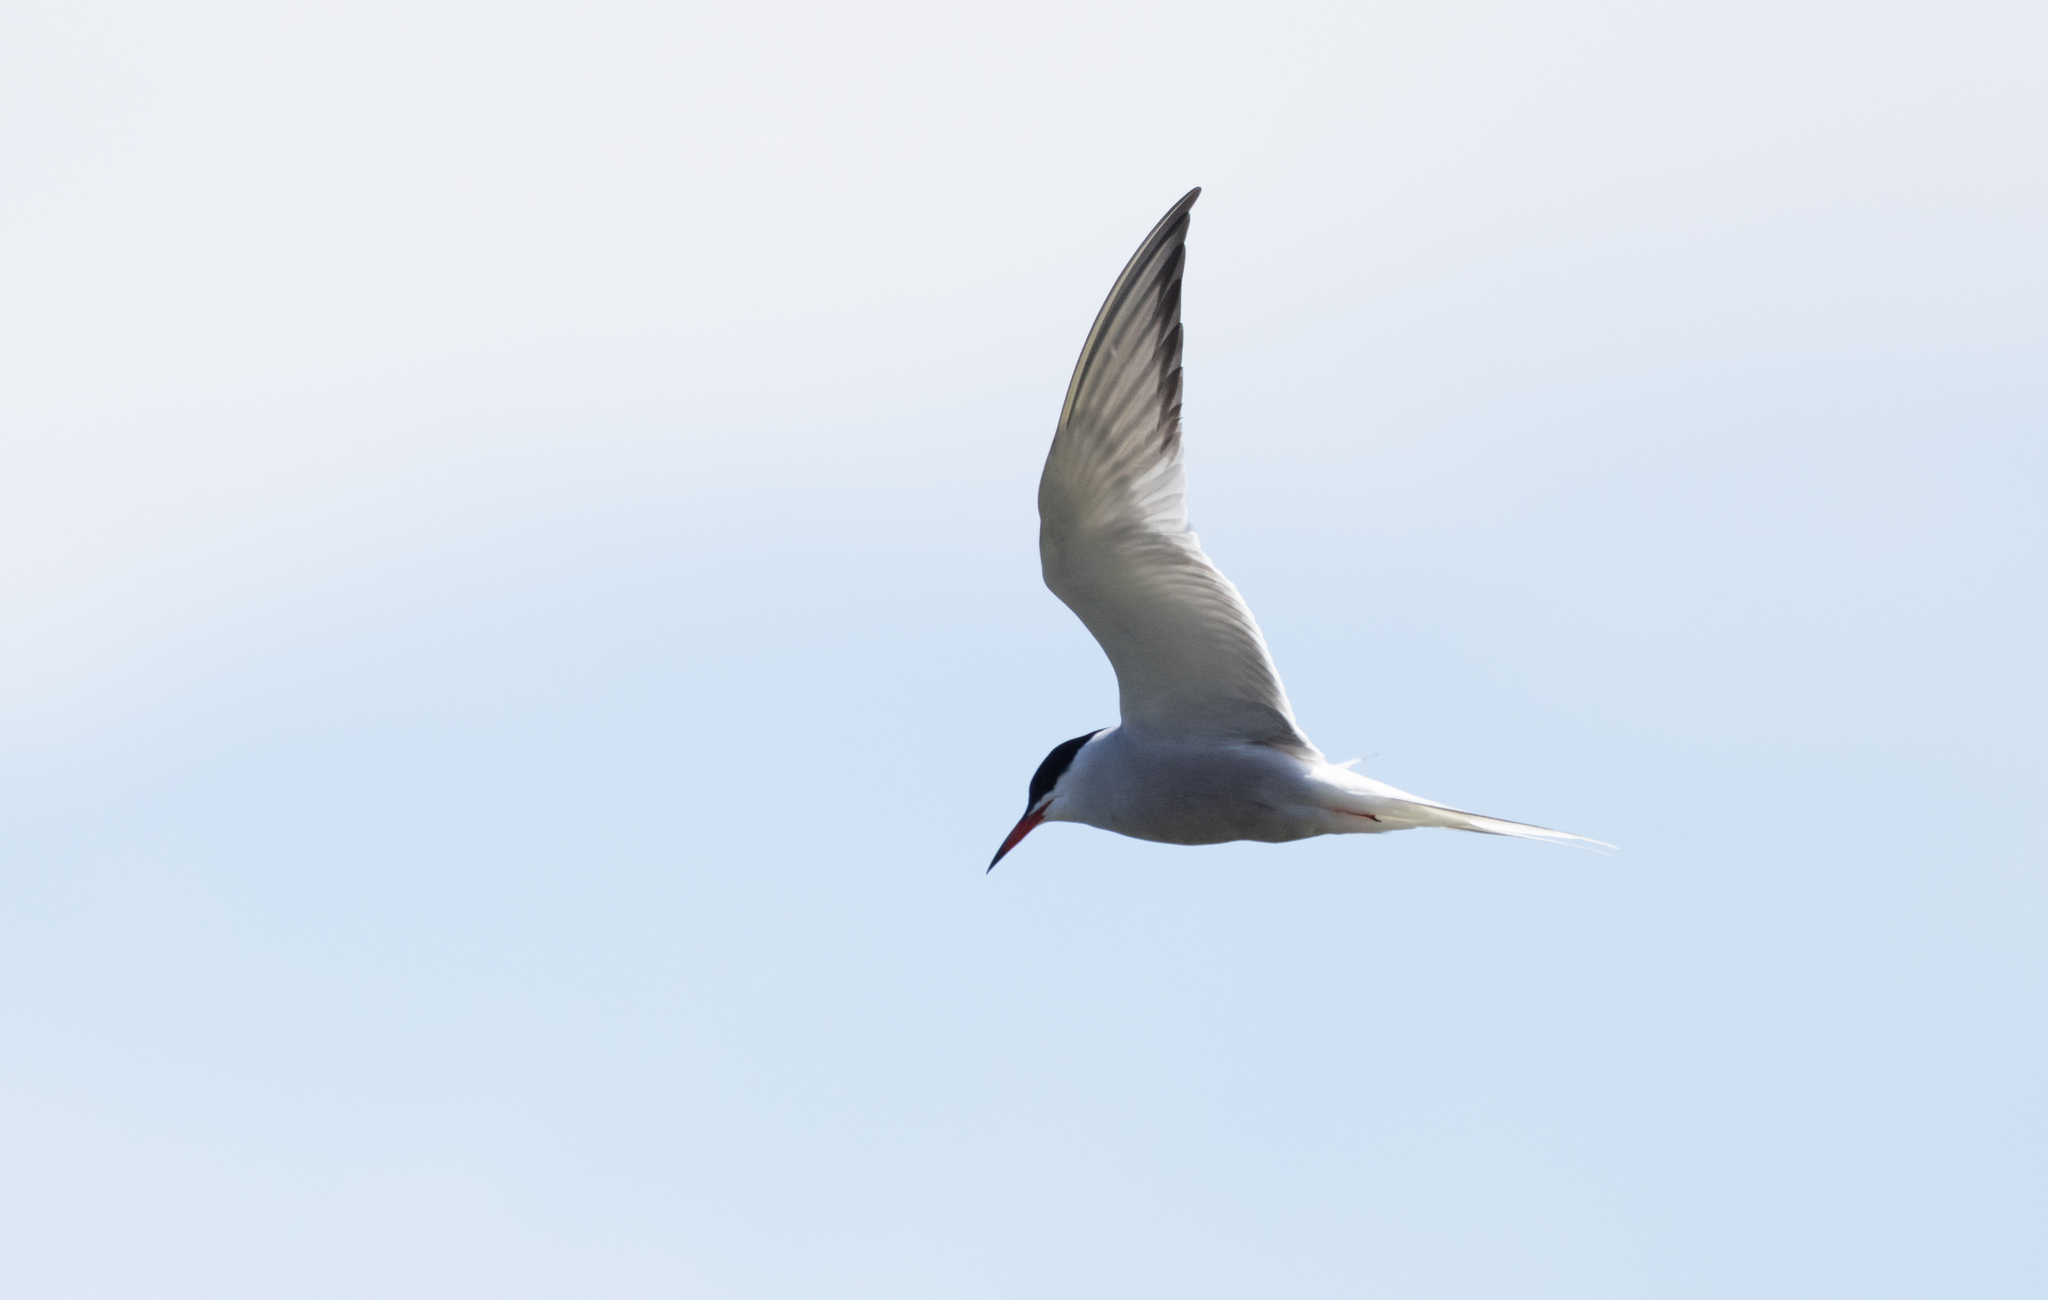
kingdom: Animalia
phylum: Chordata
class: Aves
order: Charadriiformes
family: Laridae
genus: Sterna
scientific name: Sterna hirundo
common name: Common tern
